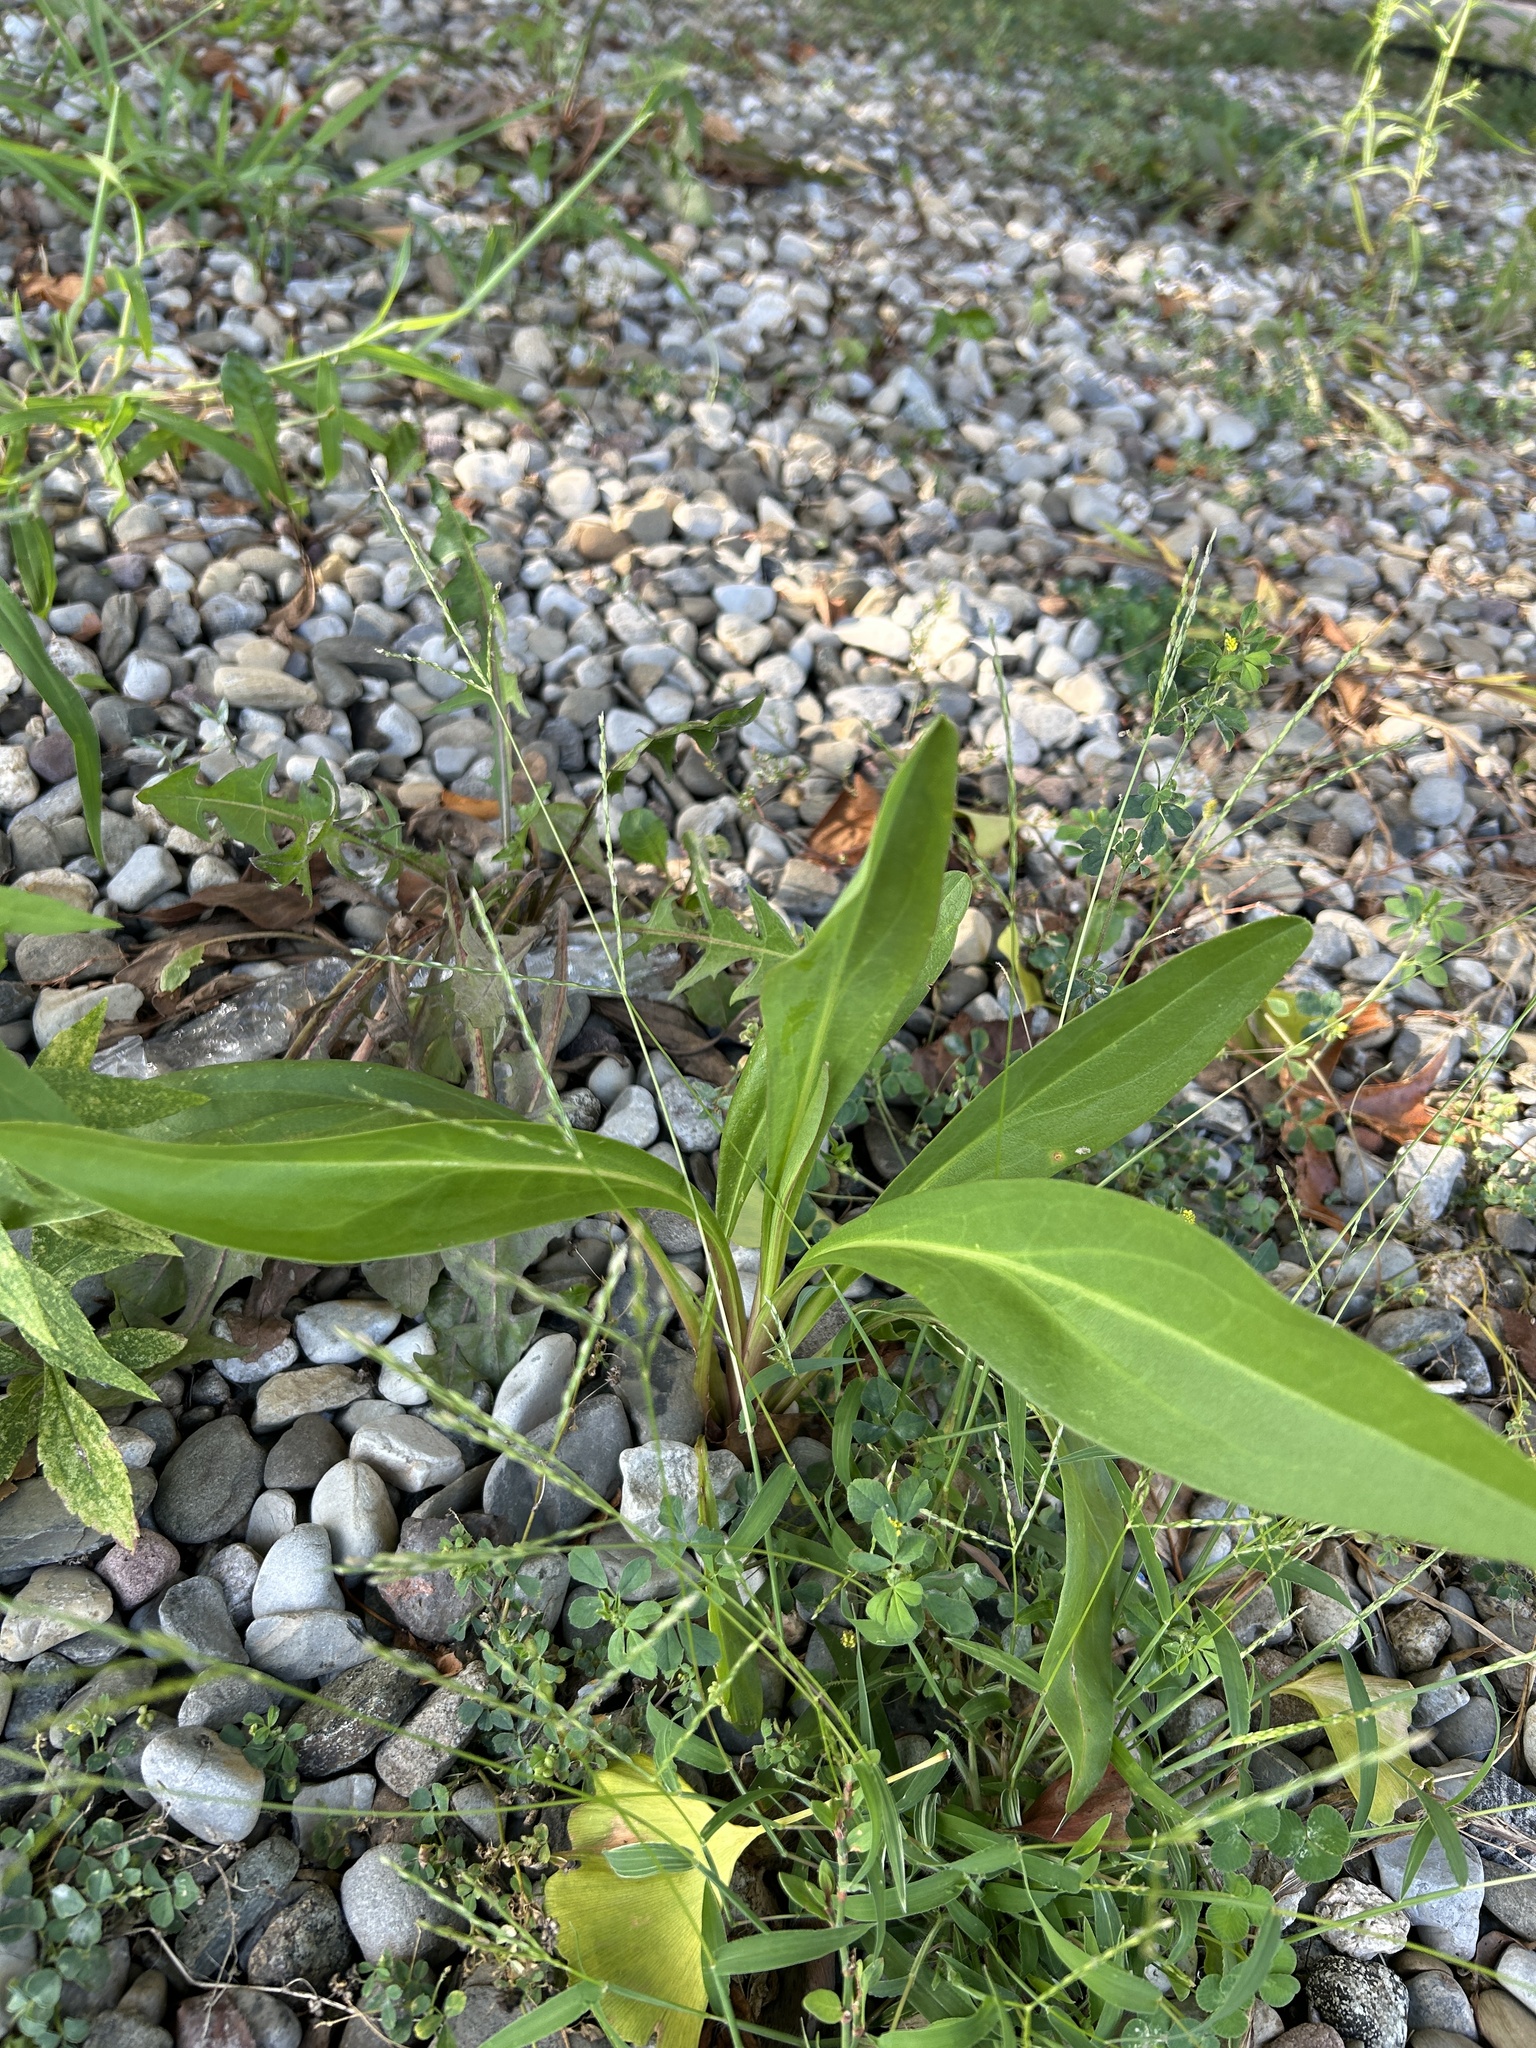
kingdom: Plantae
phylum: Tracheophyta
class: Magnoliopsida
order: Asterales
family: Asteraceae
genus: Solidago
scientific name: Solidago sempervirens
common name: Salt-marsh goldenrod
